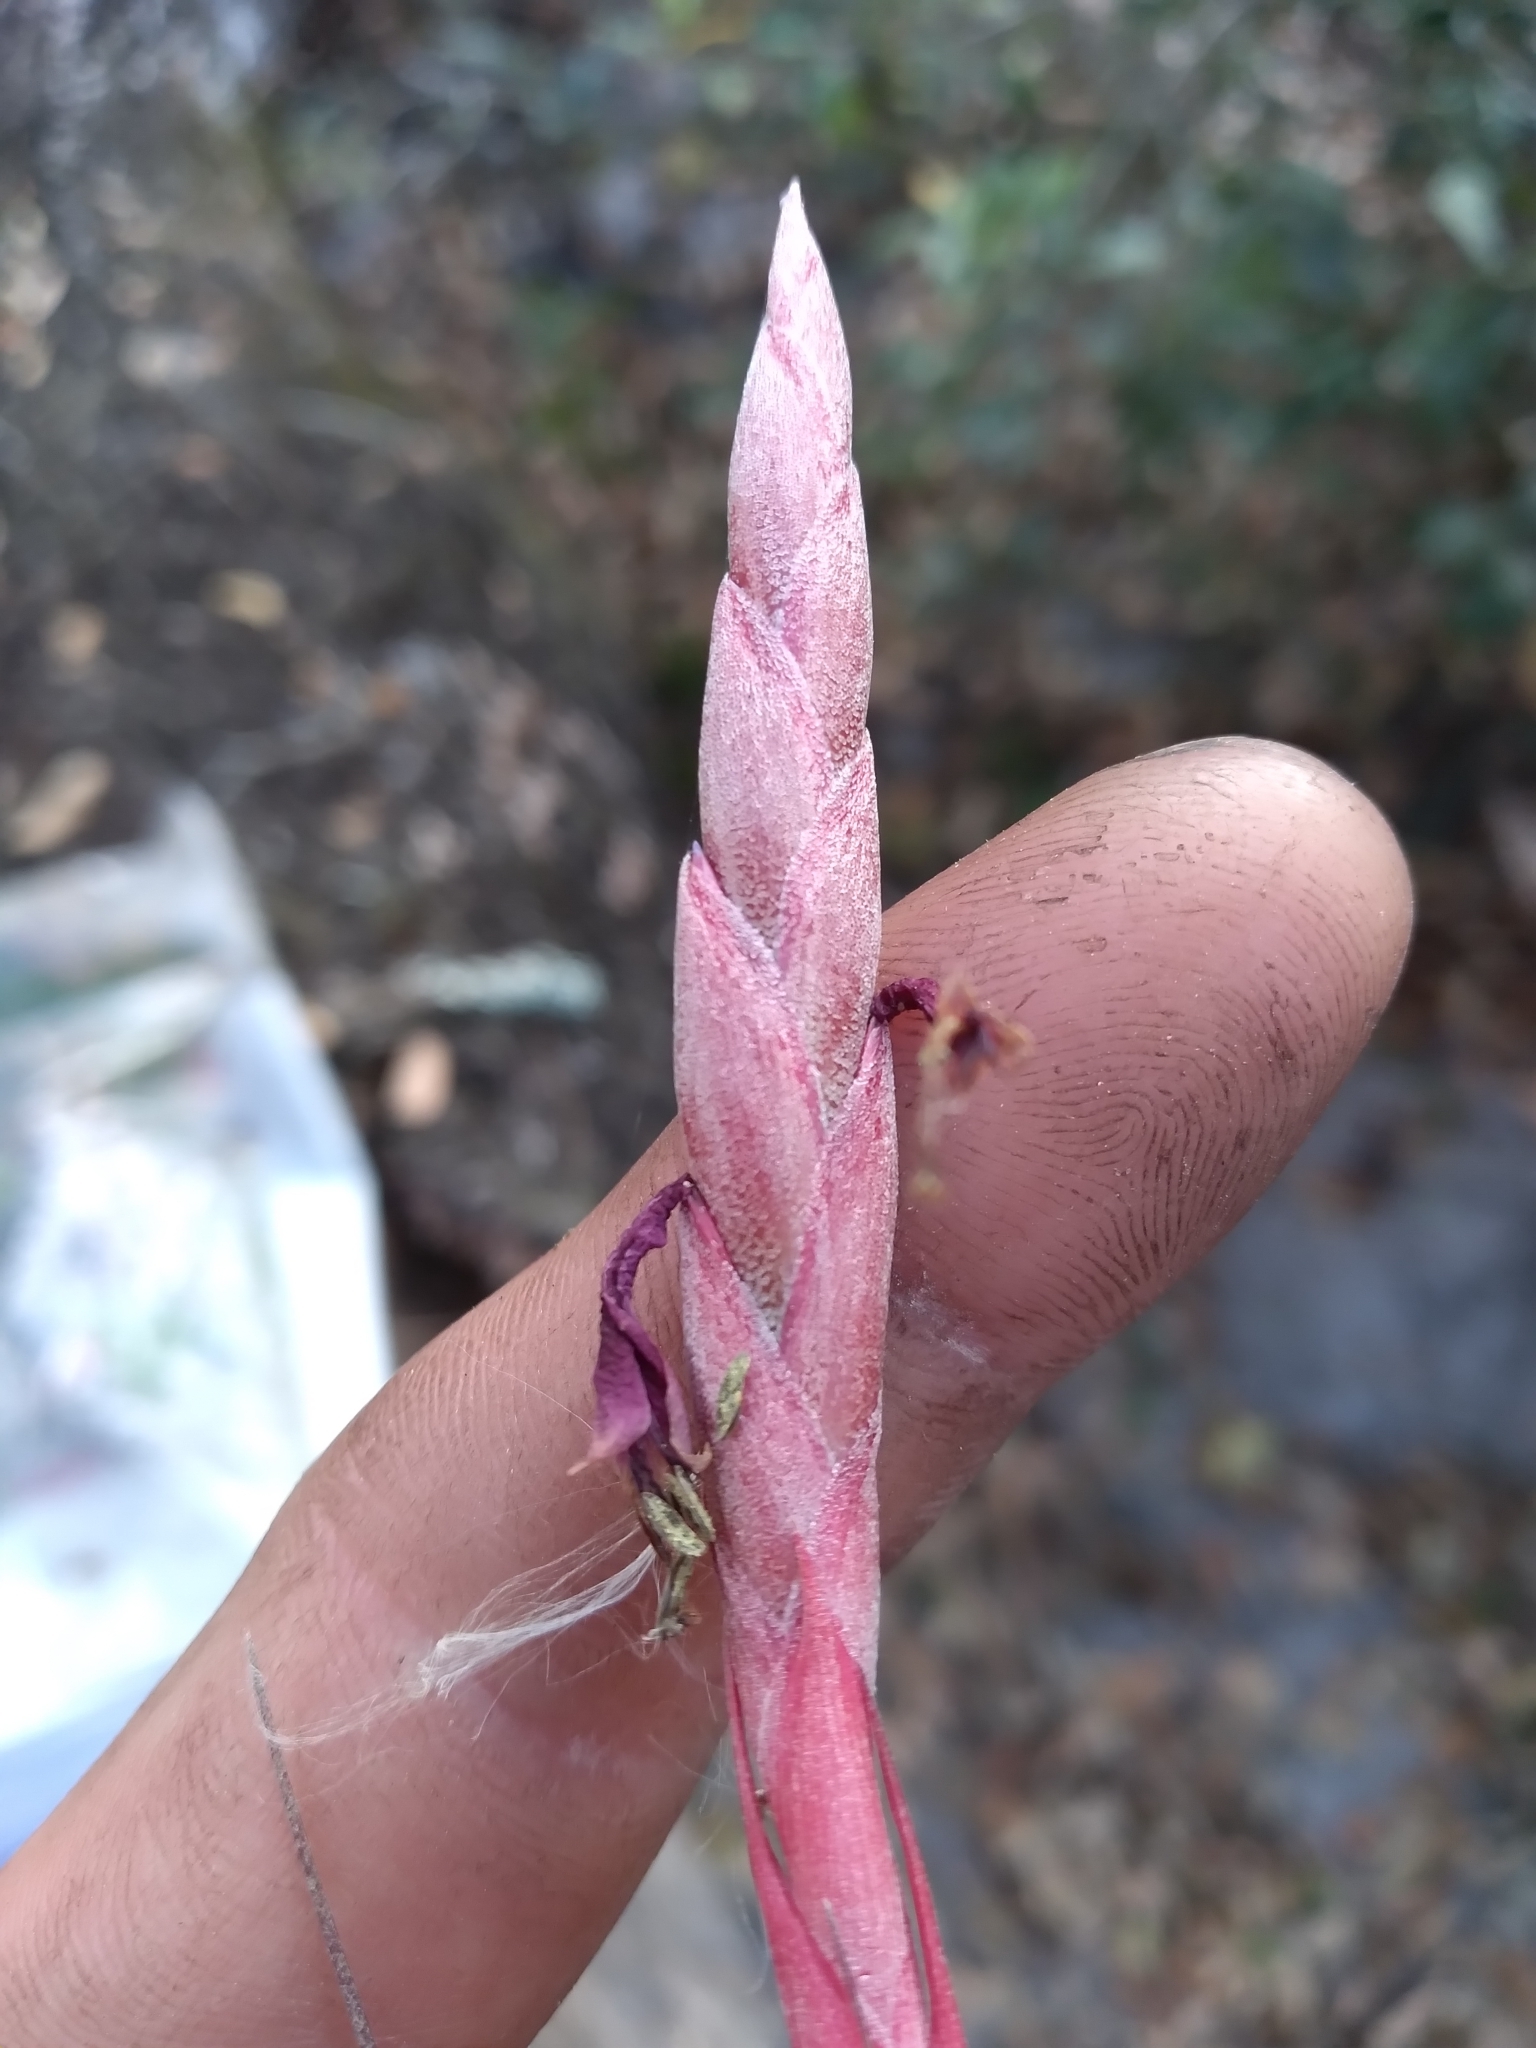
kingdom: Plantae
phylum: Tracheophyta
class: Liliopsida
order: Poales
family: Bromeliaceae
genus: Tillandsia
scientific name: Tillandsia simulata
